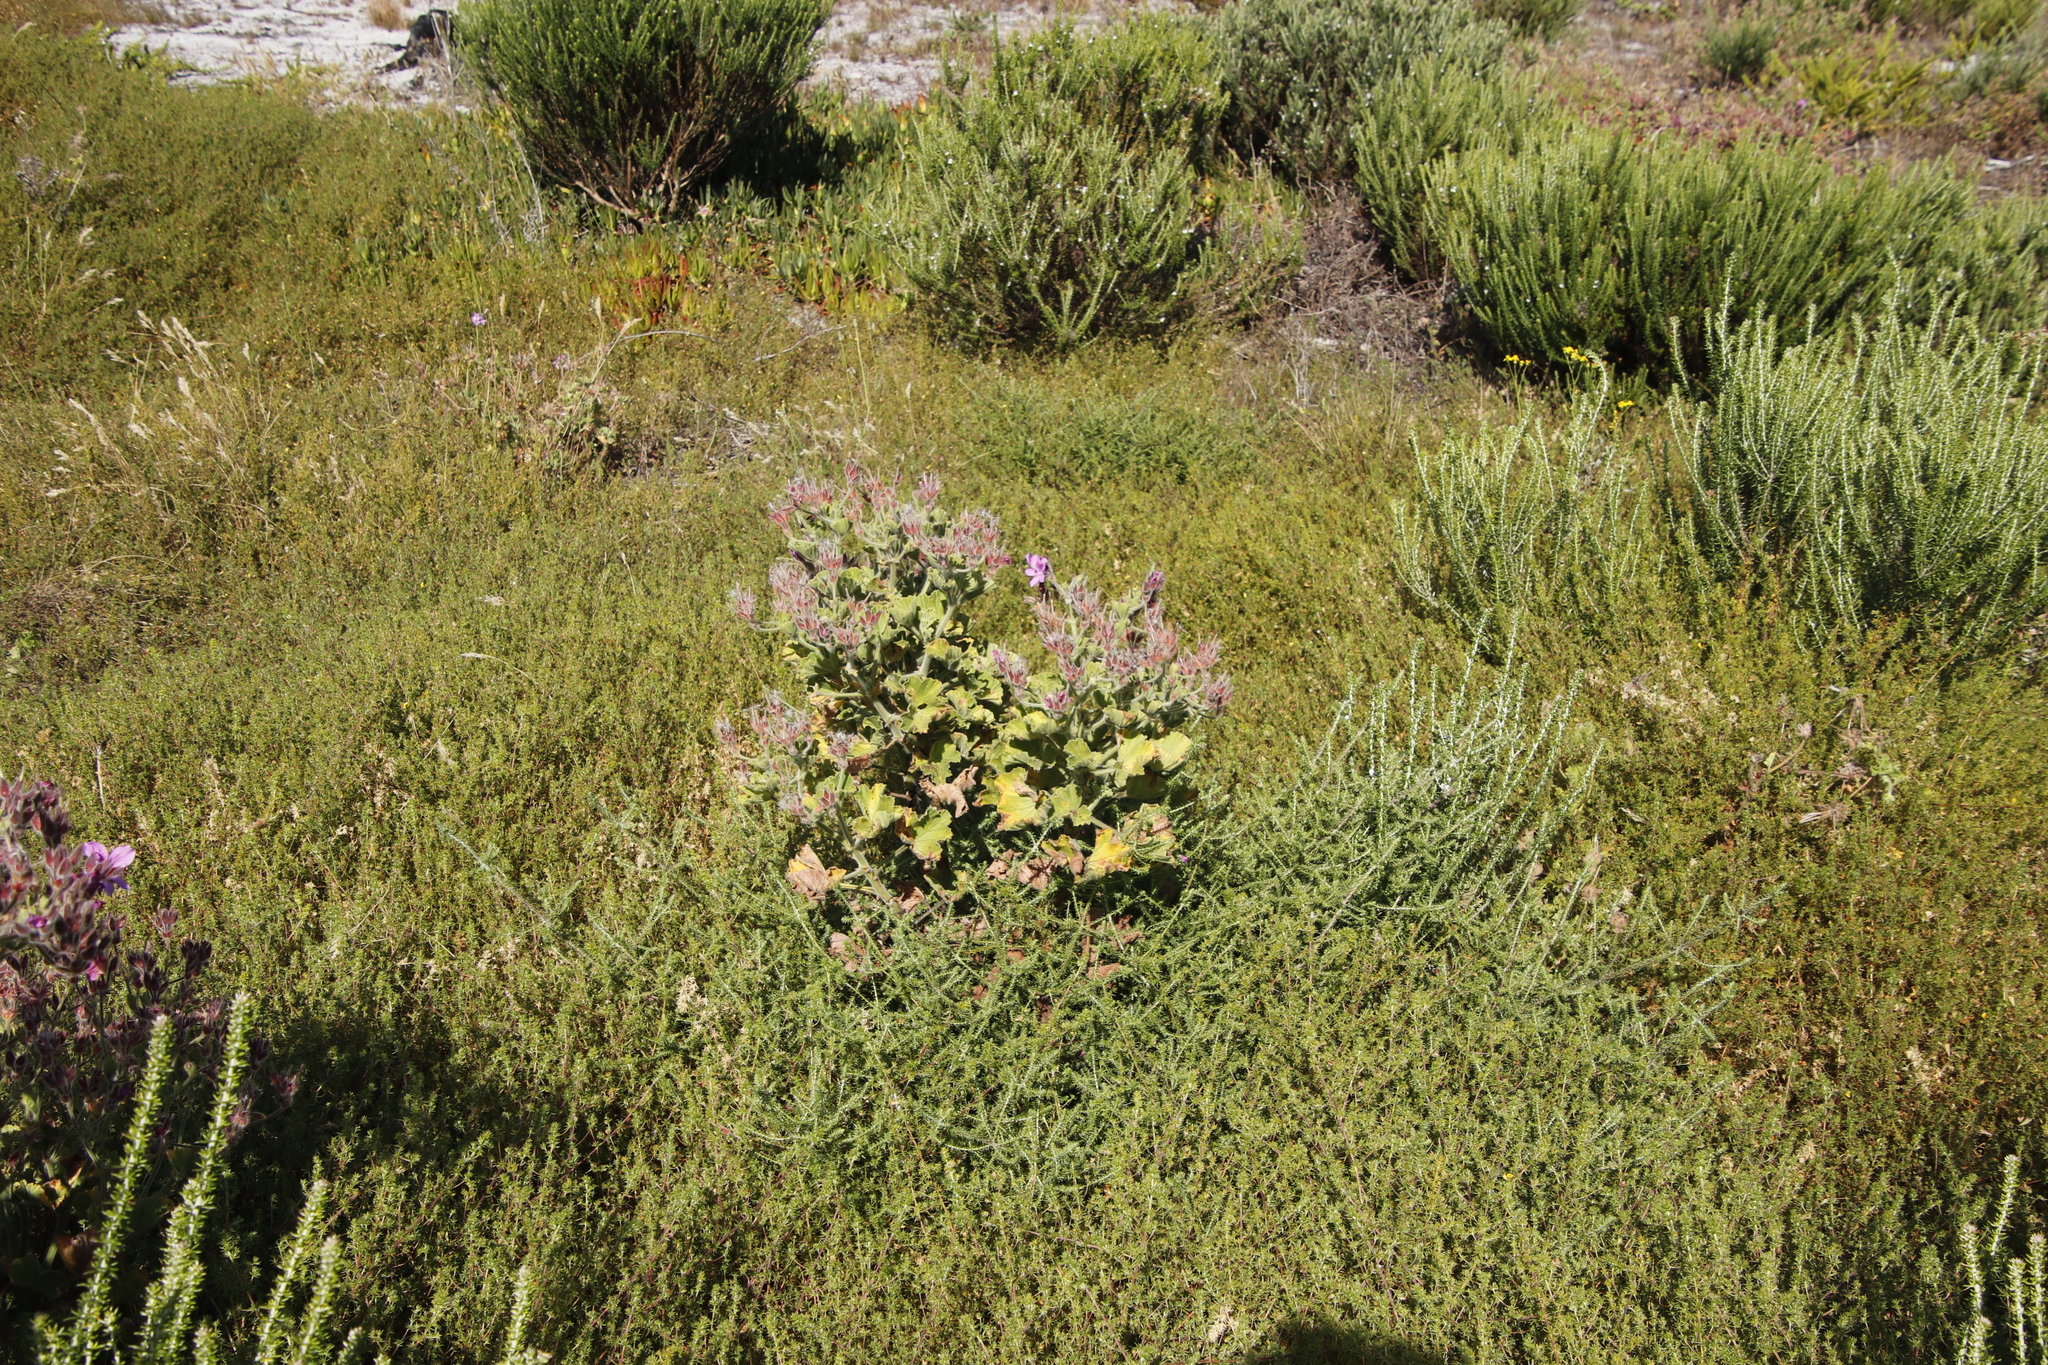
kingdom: Plantae
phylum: Tracheophyta
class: Magnoliopsida
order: Geraniales
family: Geraniaceae
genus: Pelargonium
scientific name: Pelargonium cucullatum
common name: Tree pelargonium
